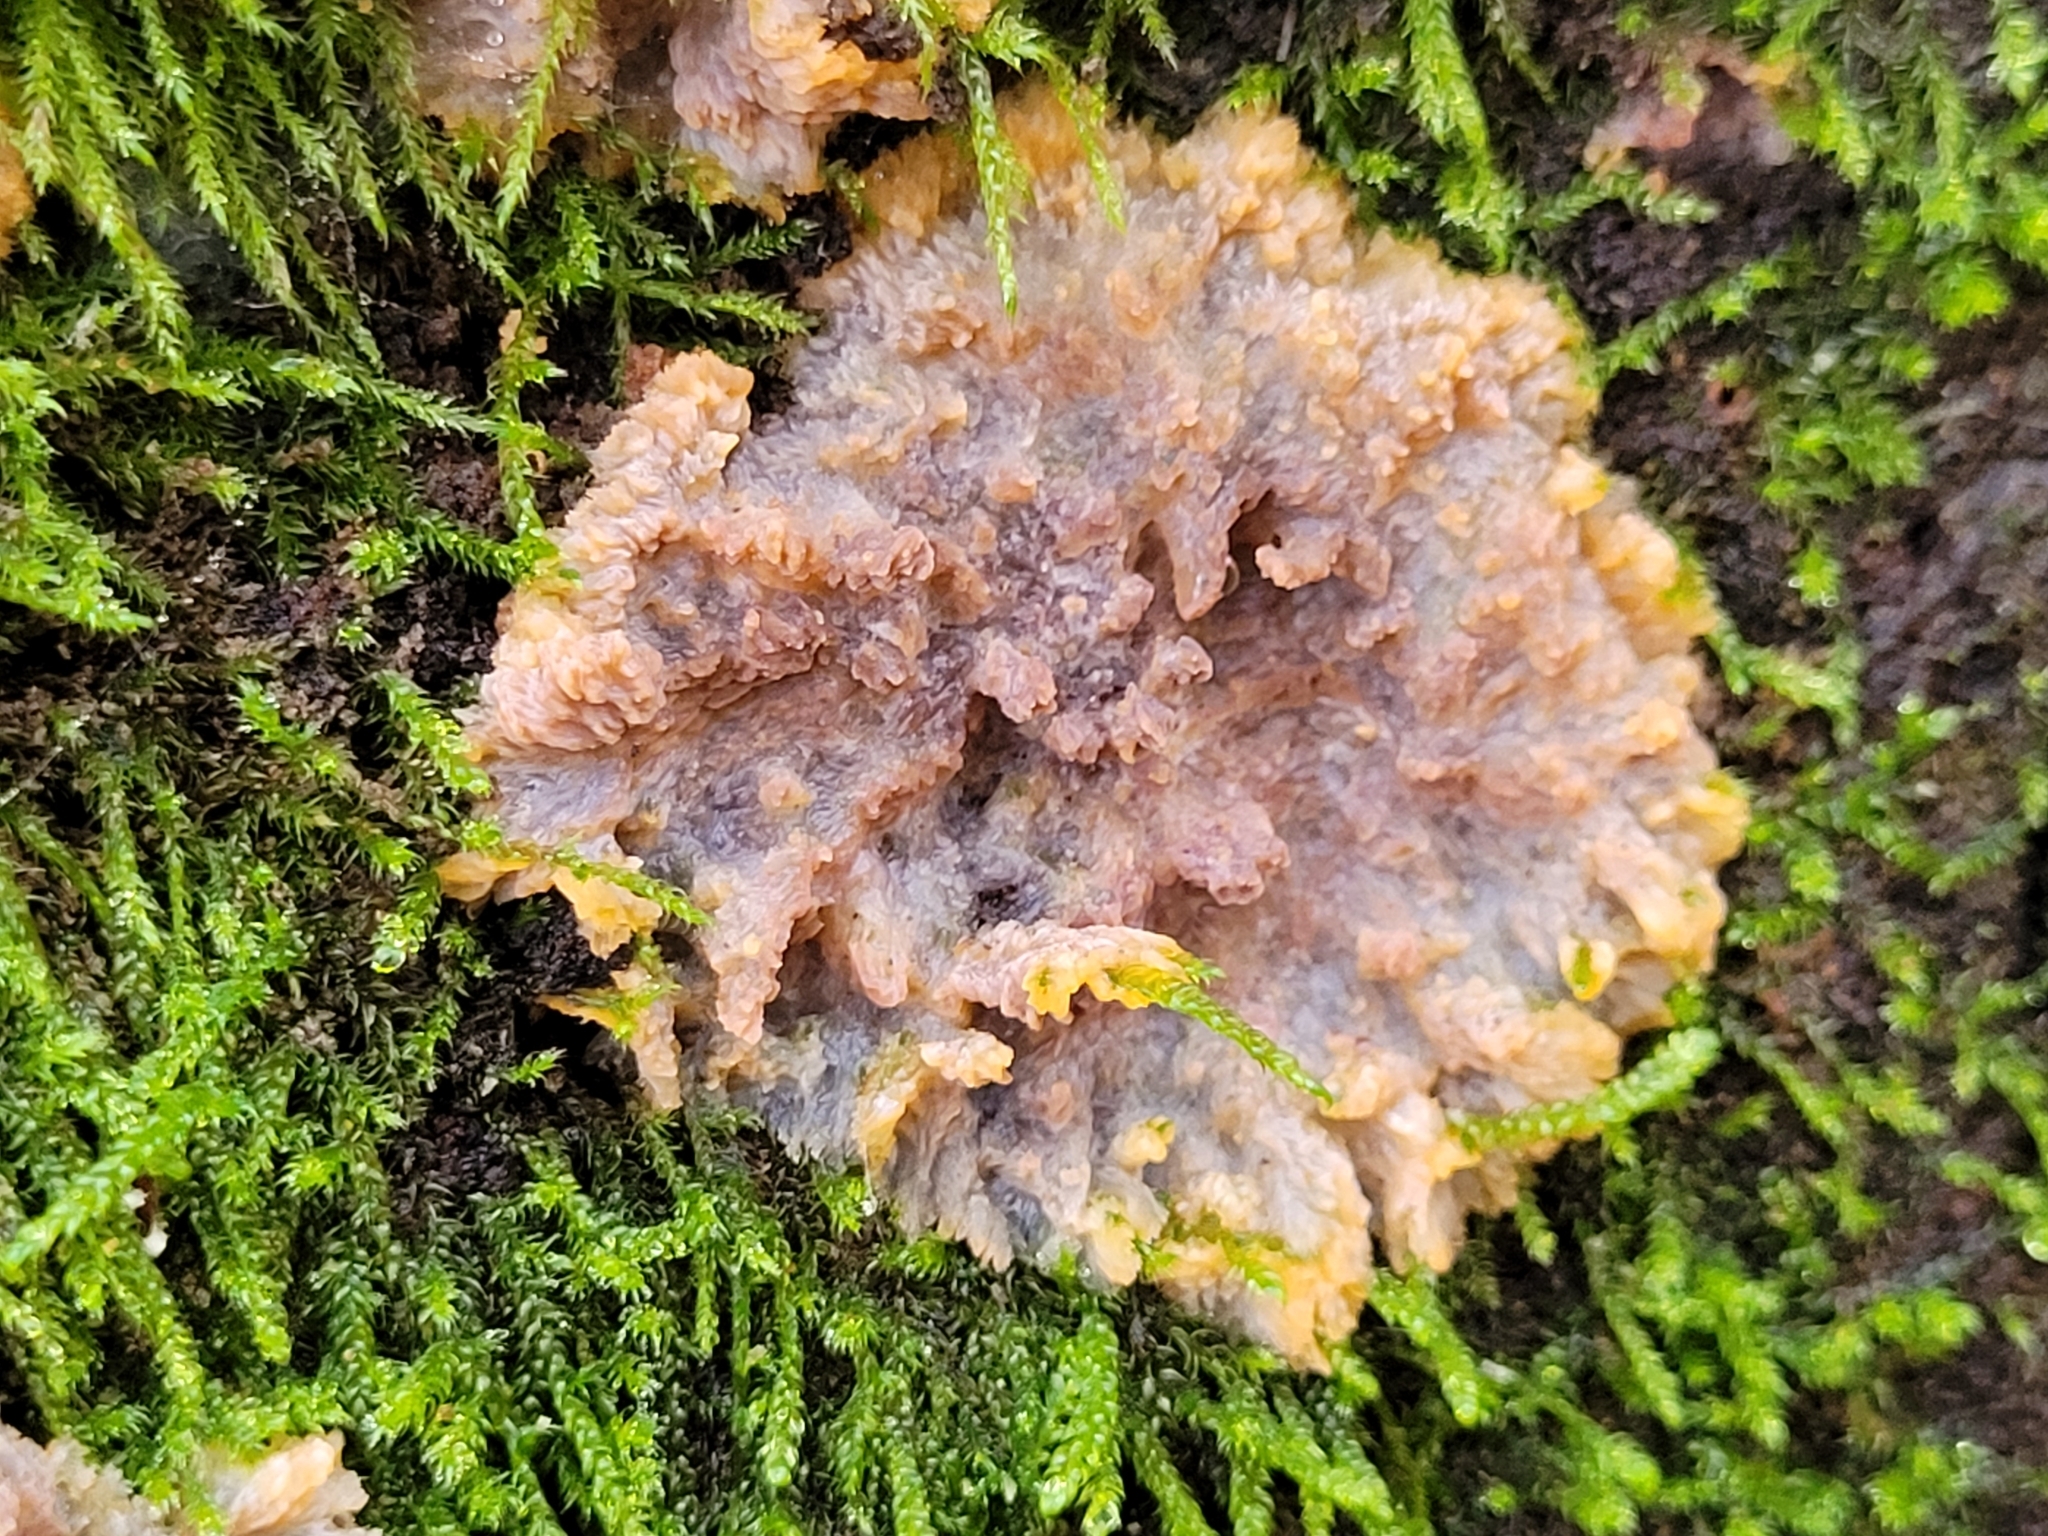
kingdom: Fungi
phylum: Basidiomycota
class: Agaricomycetes
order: Polyporales
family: Meruliaceae
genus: Phlebia
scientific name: Phlebia radiata
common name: Wrinkled crust
